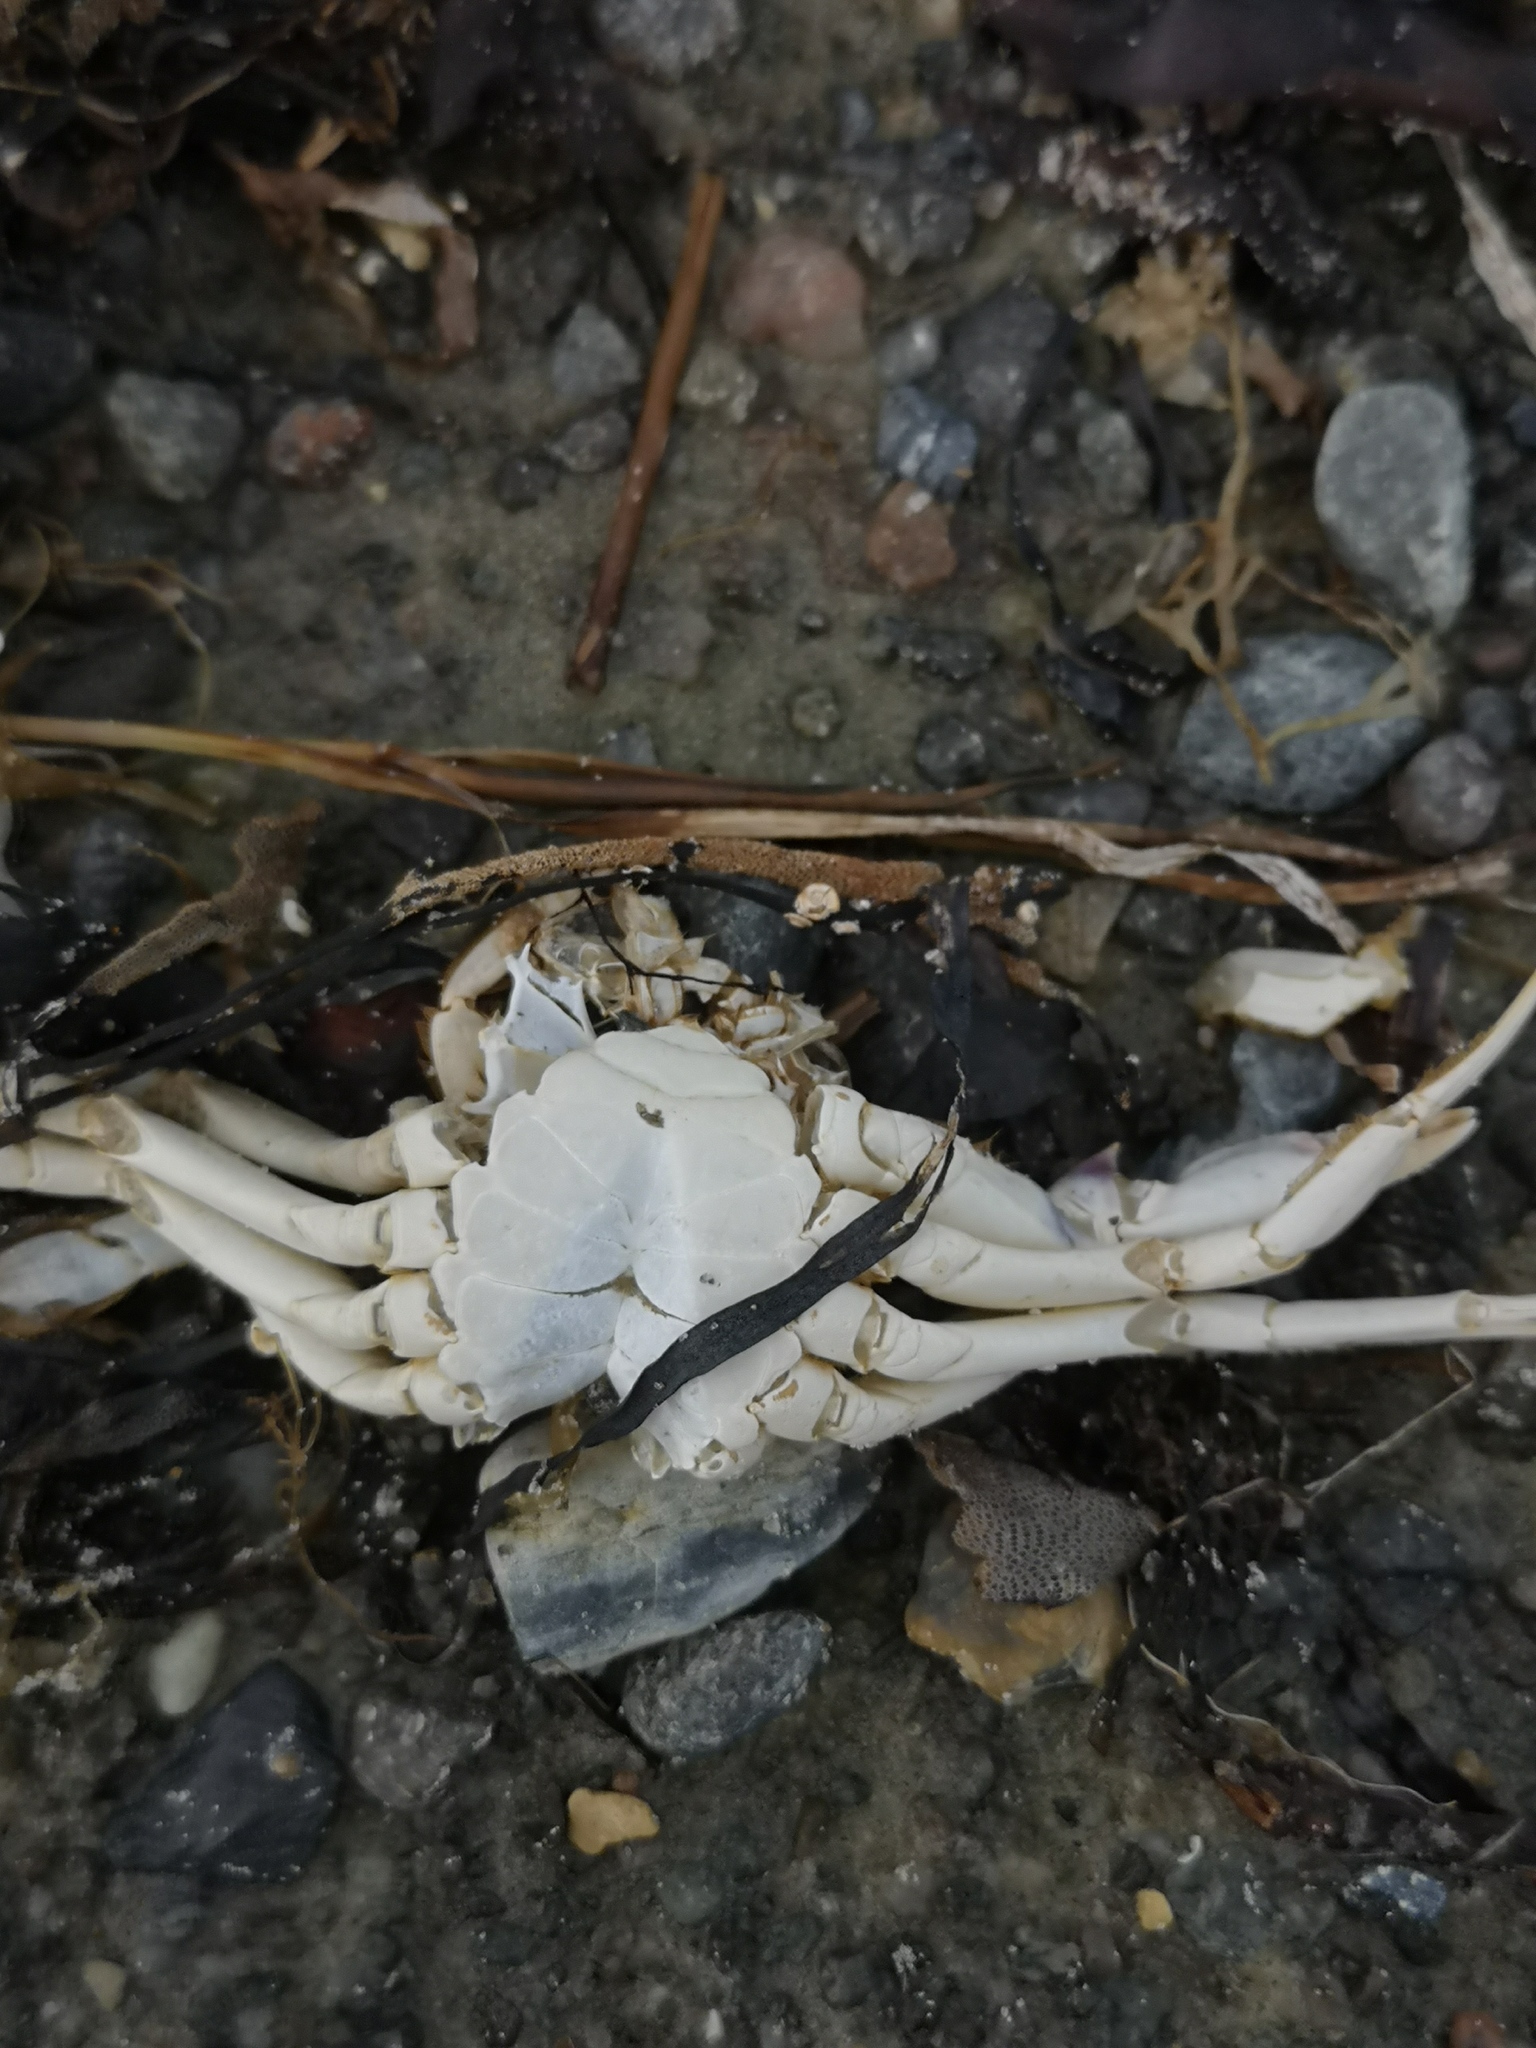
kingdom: Animalia
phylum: Arthropoda
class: Malacostraca
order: Decapoda
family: Carcinidae
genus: Carcinus
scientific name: Carcinus maenas
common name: European green crab
